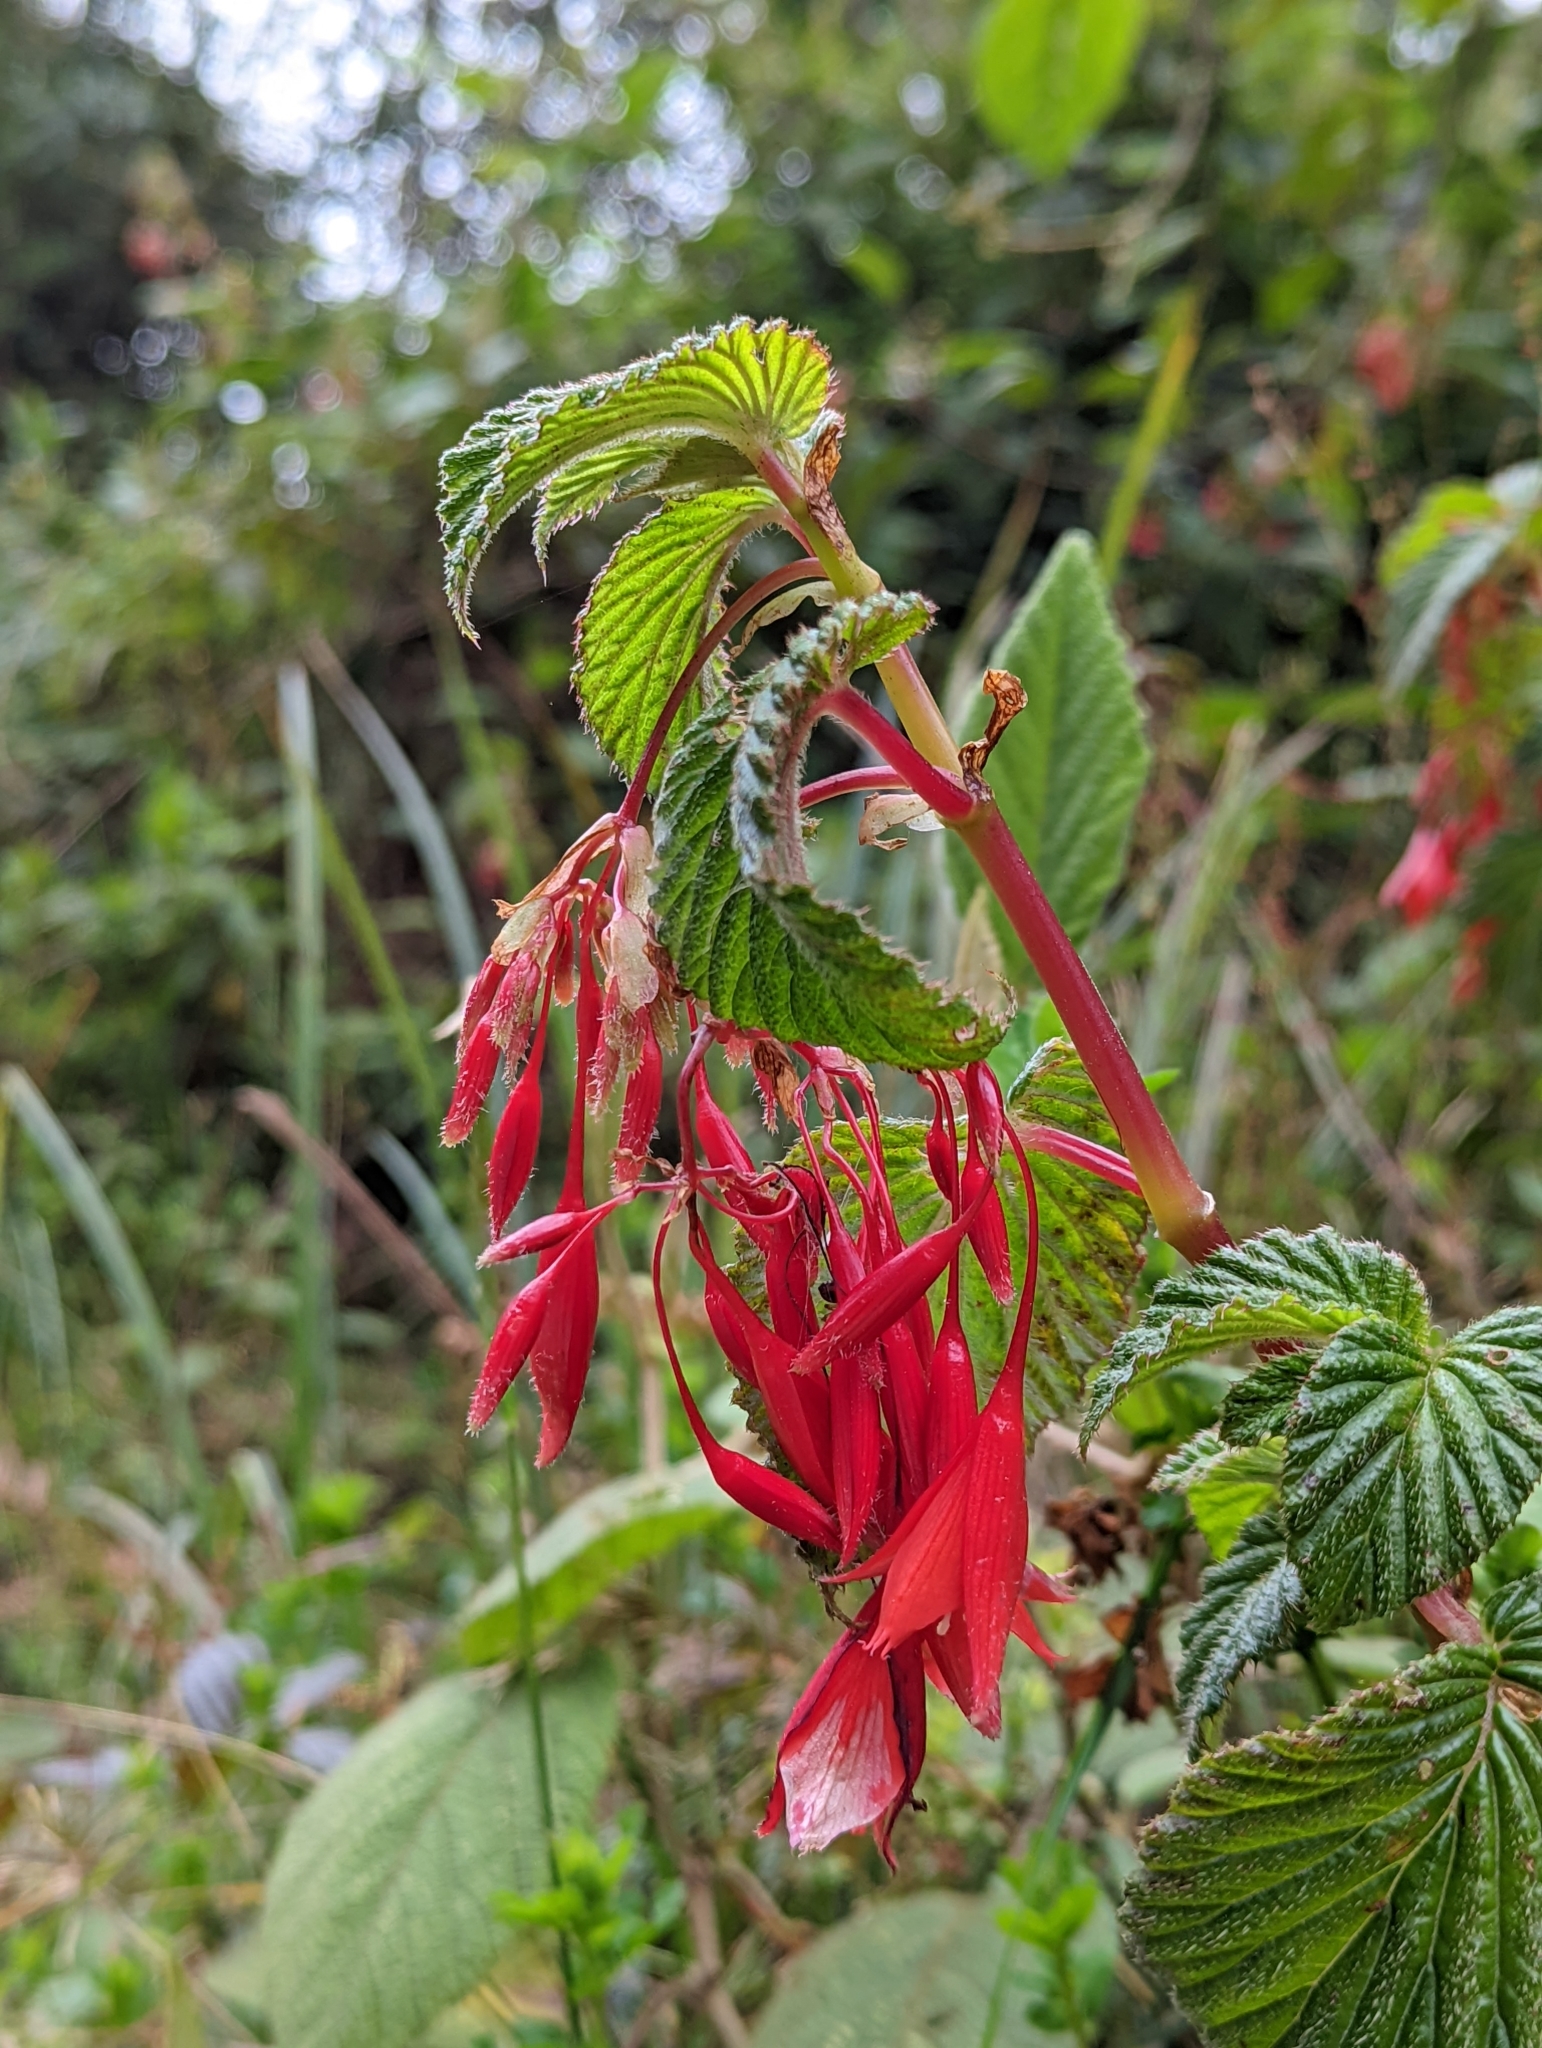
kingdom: Plantae
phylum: Tracheophyta
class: Magnoliopsida
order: Cucurbitales
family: Begoniaceae
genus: Begonia
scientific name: Begonia umbellata
